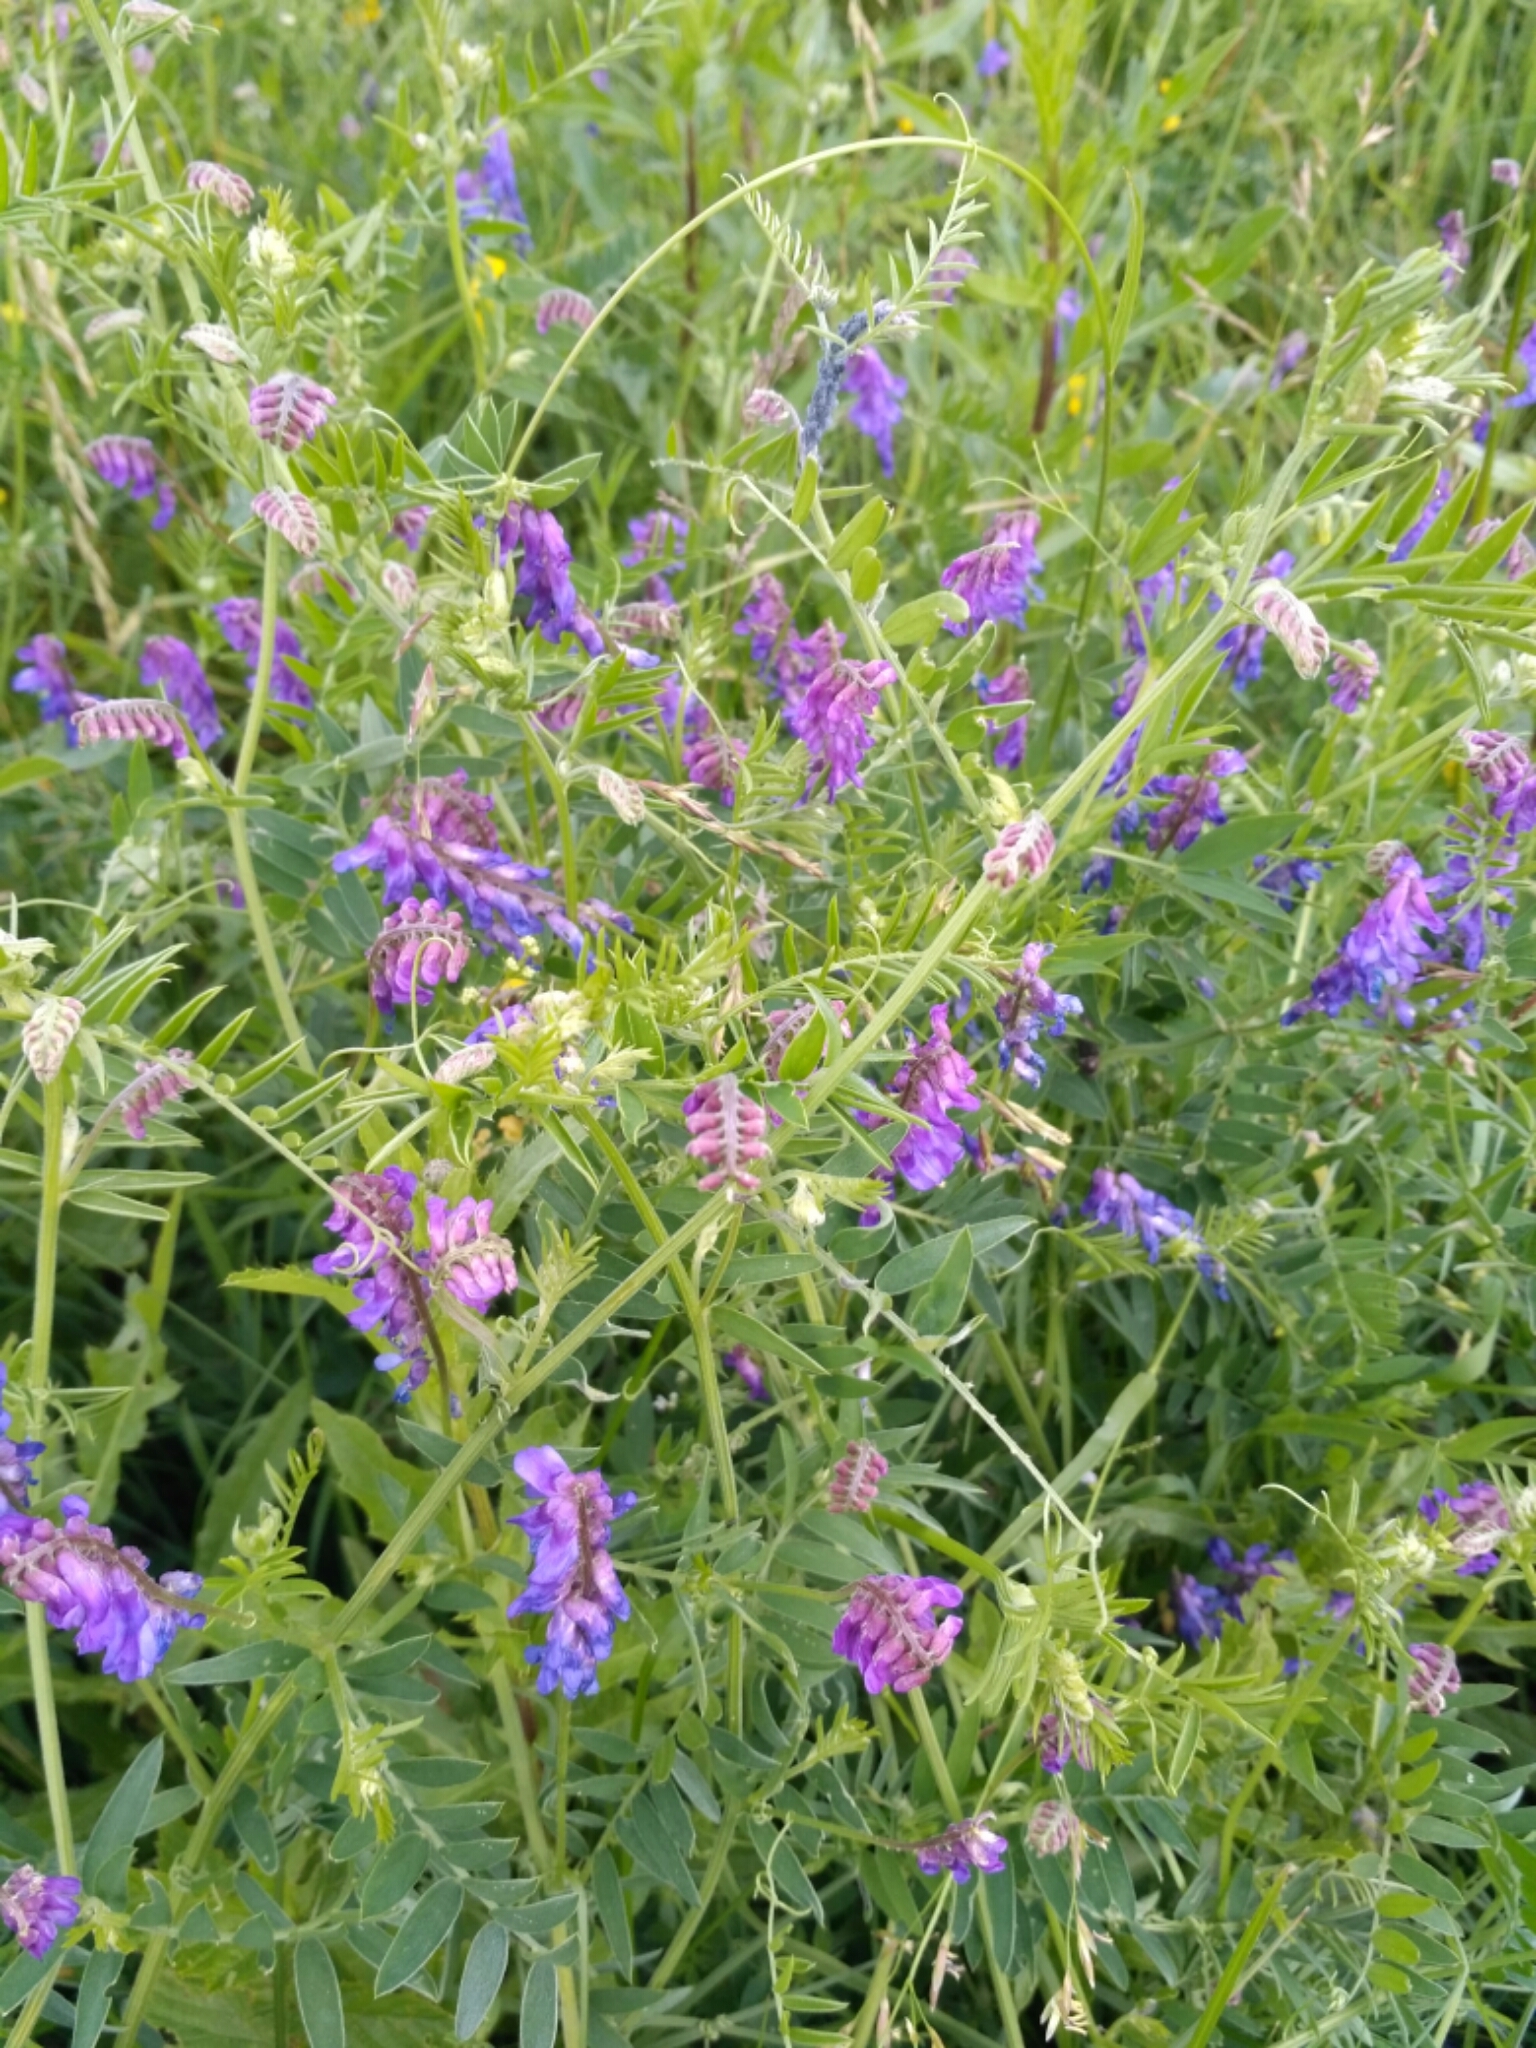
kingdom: Plantae
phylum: Tracheophyta
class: Magnoliopsida
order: Fabales
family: Fabaceae
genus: Vicia
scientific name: Vicia cracca
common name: Bird vetch
